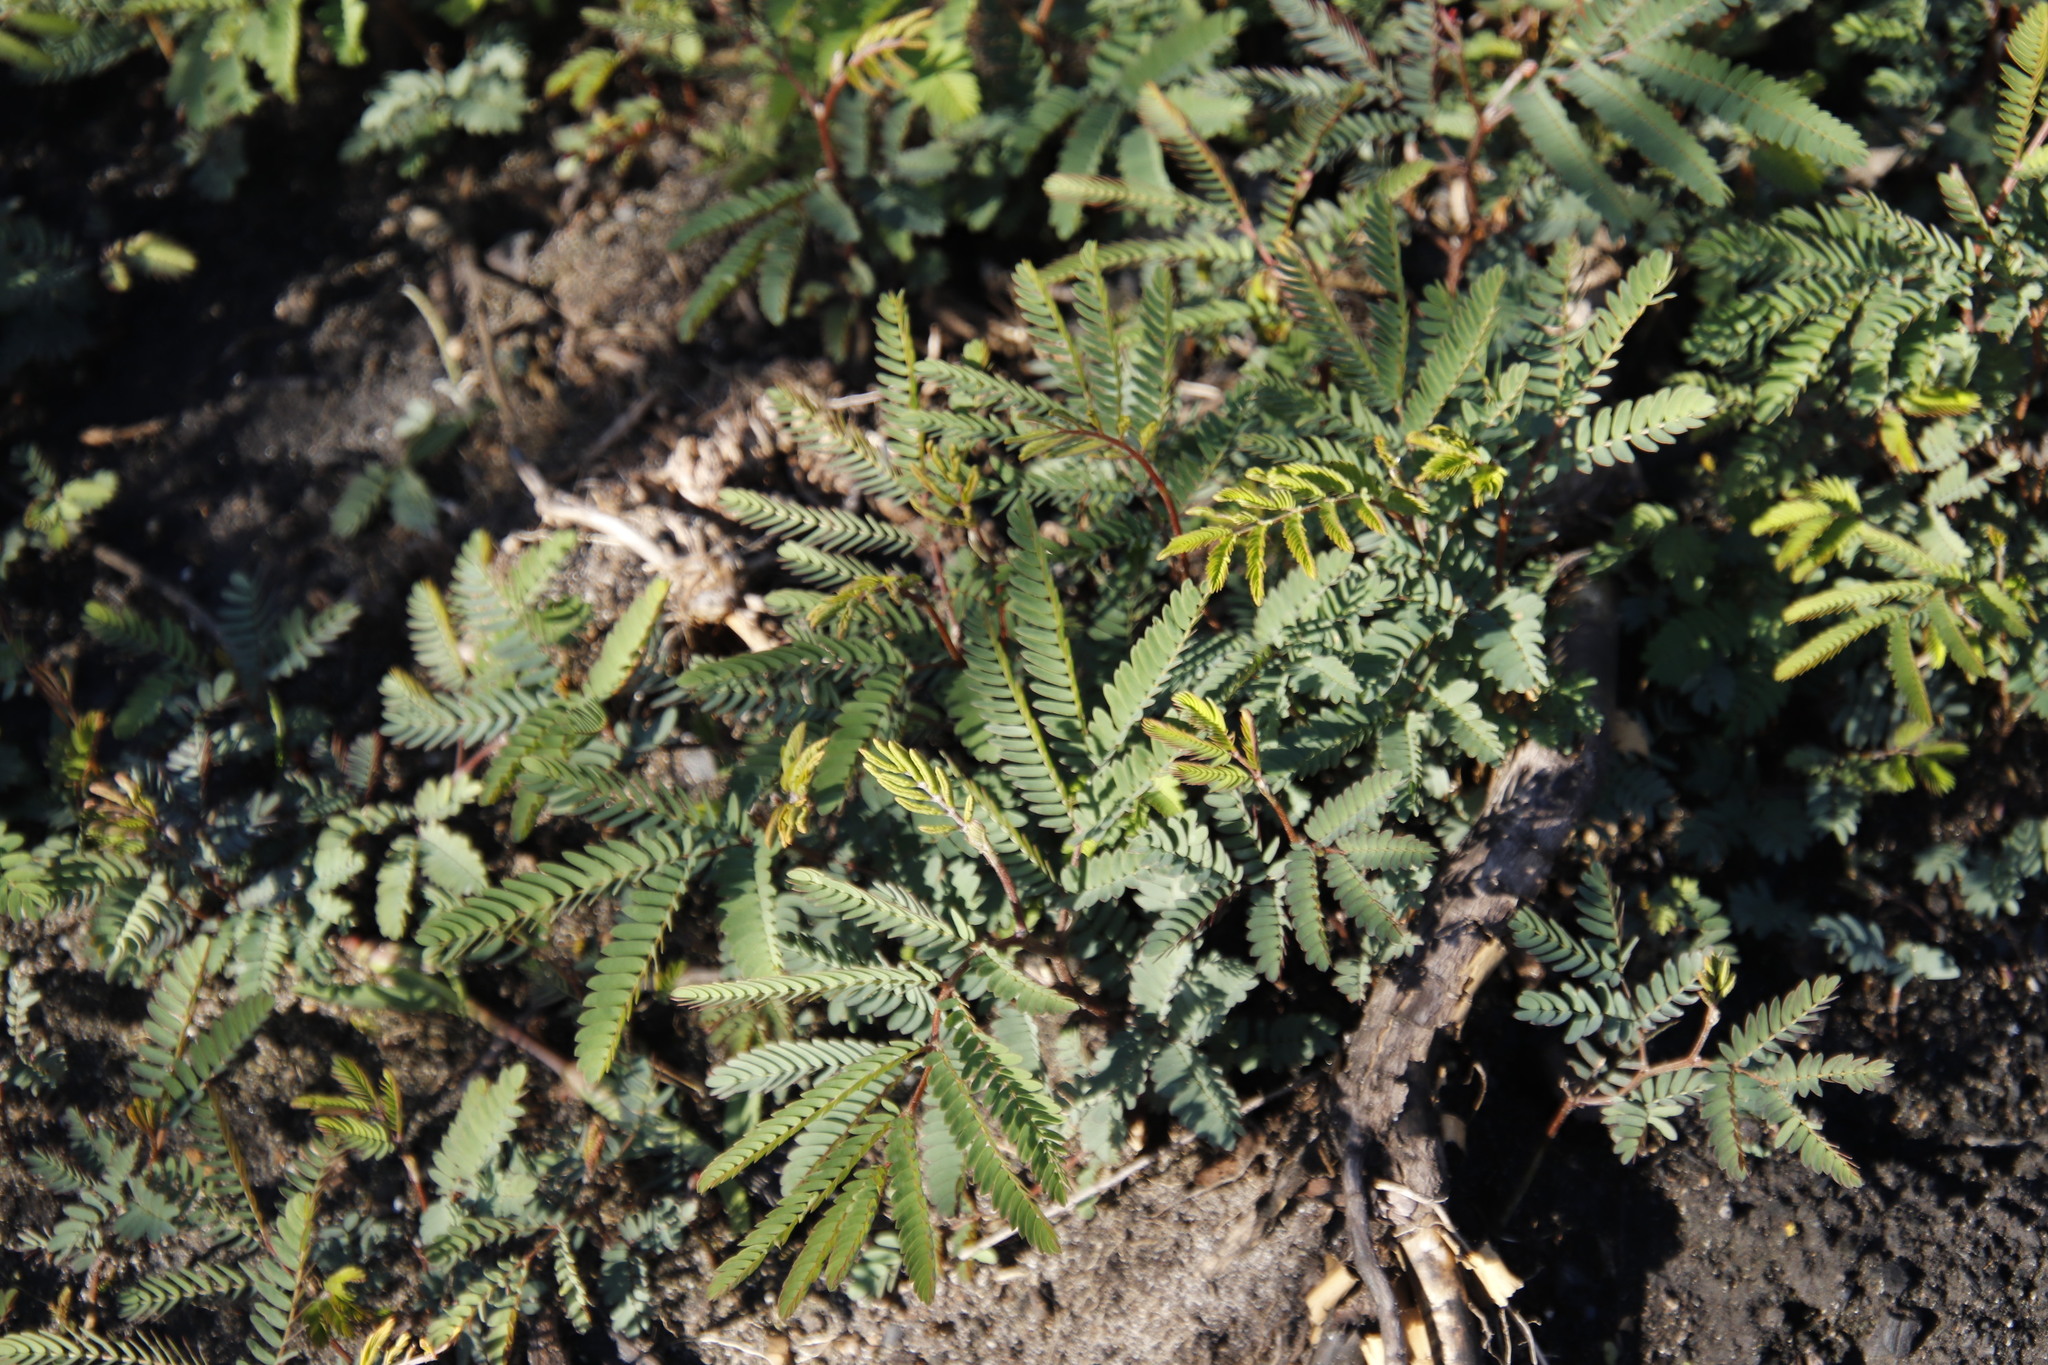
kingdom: Plantae
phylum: Tracheophyta
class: Magnoliopsida
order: Fabales
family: Fabaceae
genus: Paraserianthes
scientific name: Paraserianthes lophantha
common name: Plume albizia
